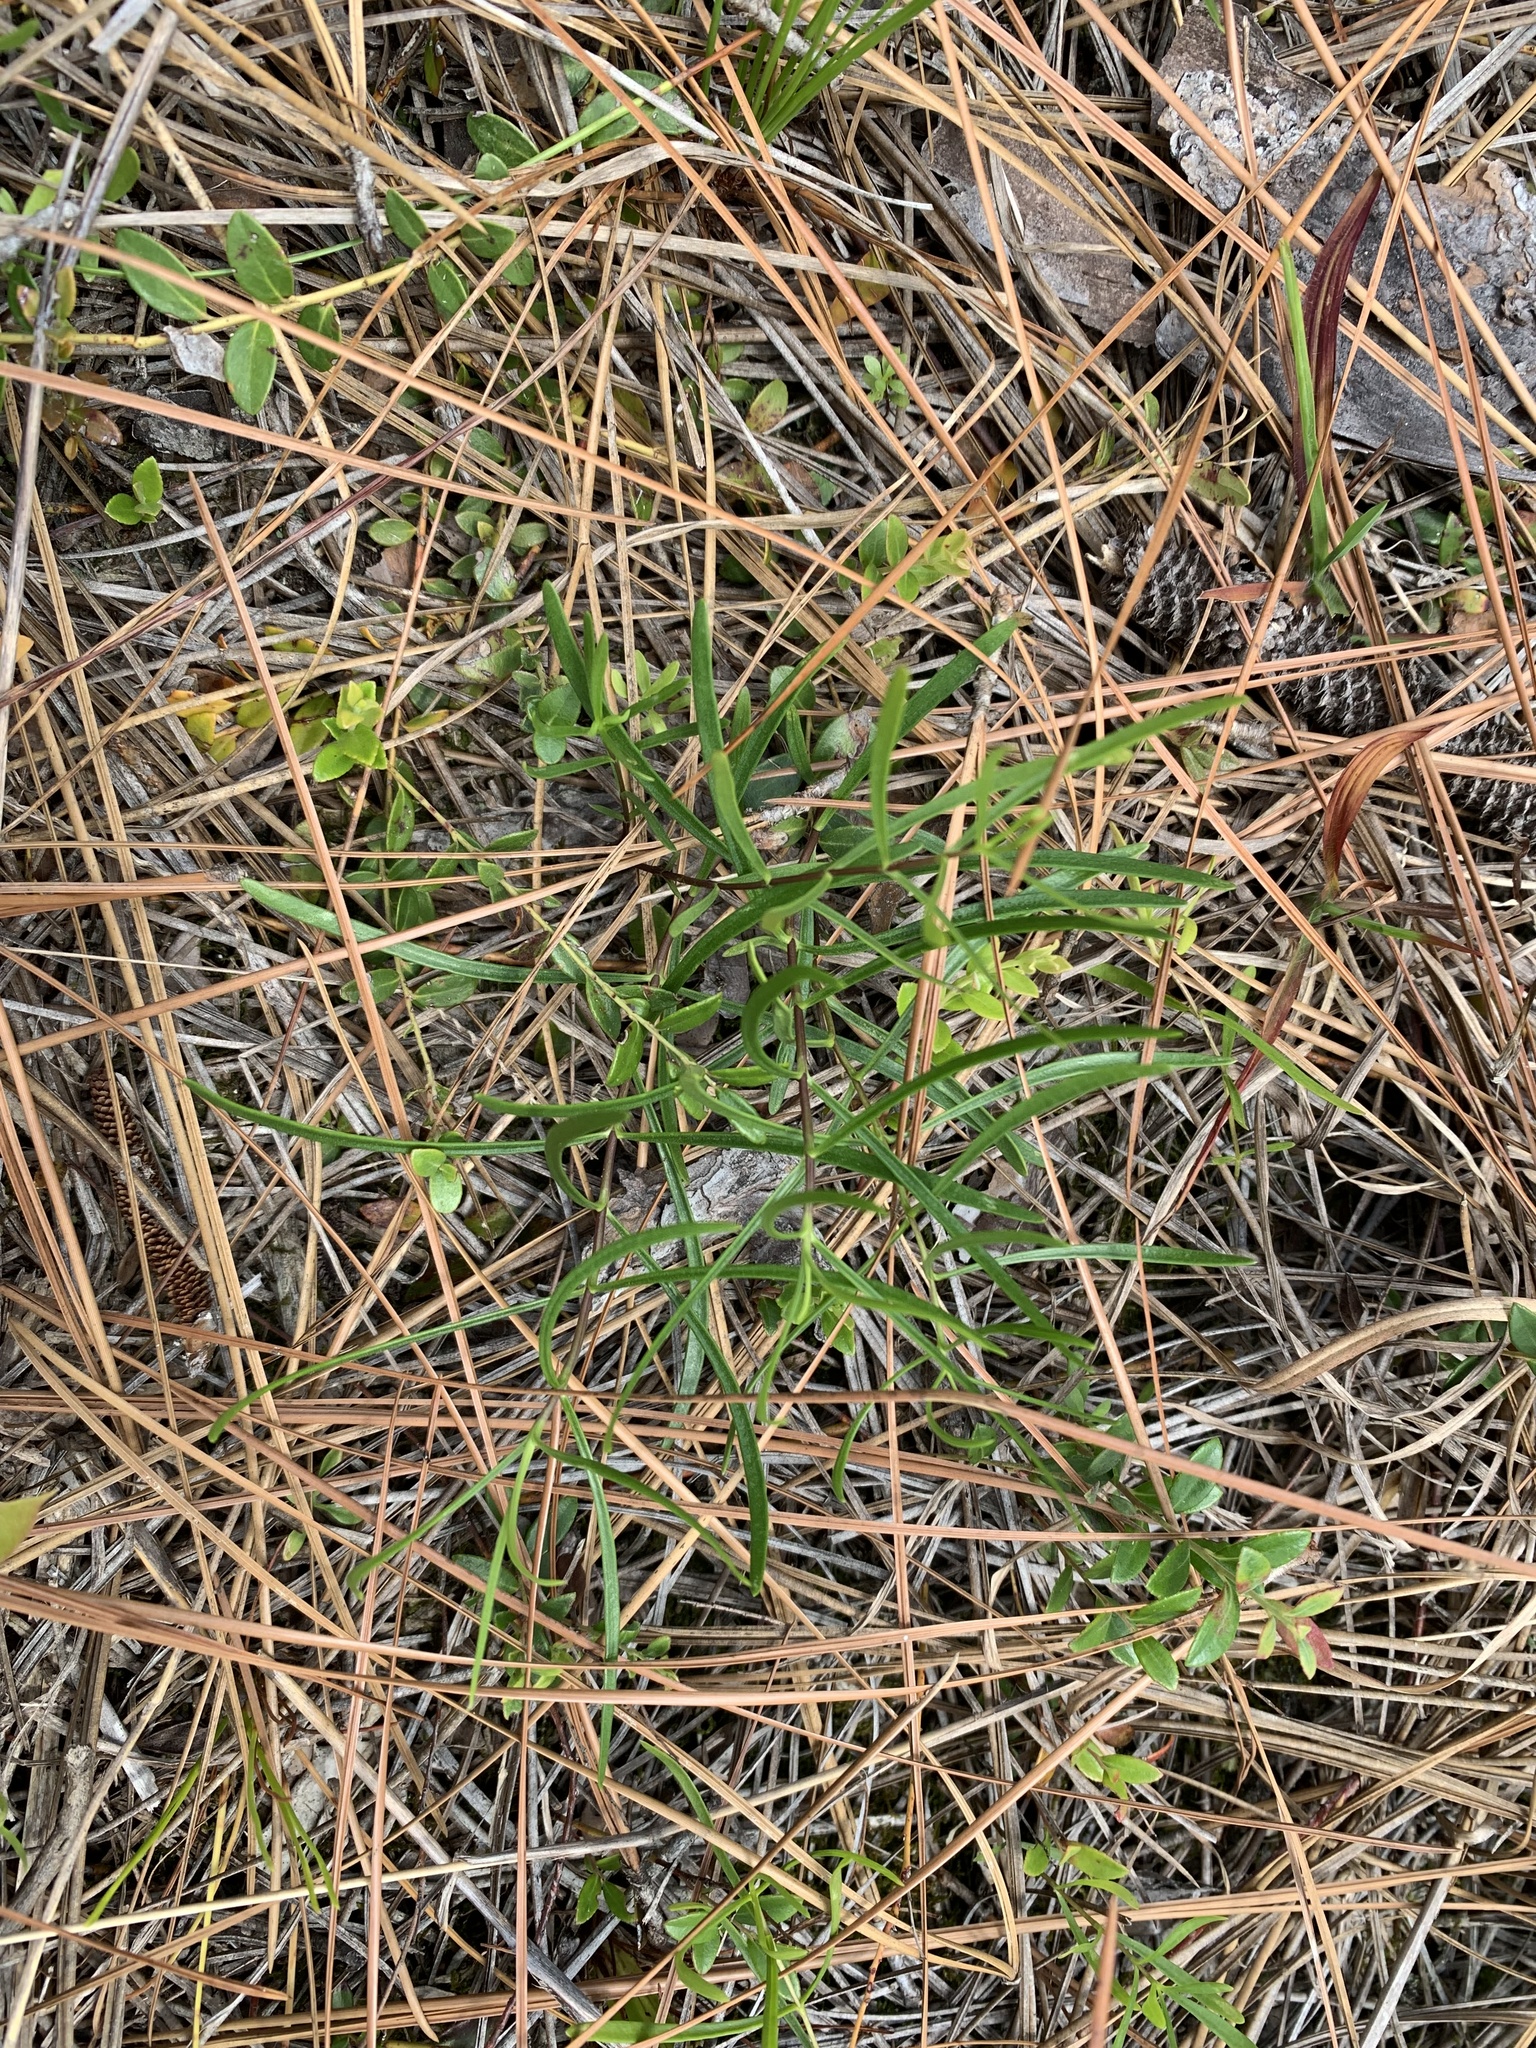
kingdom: Plantae
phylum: Tracheophyta
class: Magnoliopsida
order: Gentianales
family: Gentianaceae
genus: Gentiana
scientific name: Gentiana autumnalis
